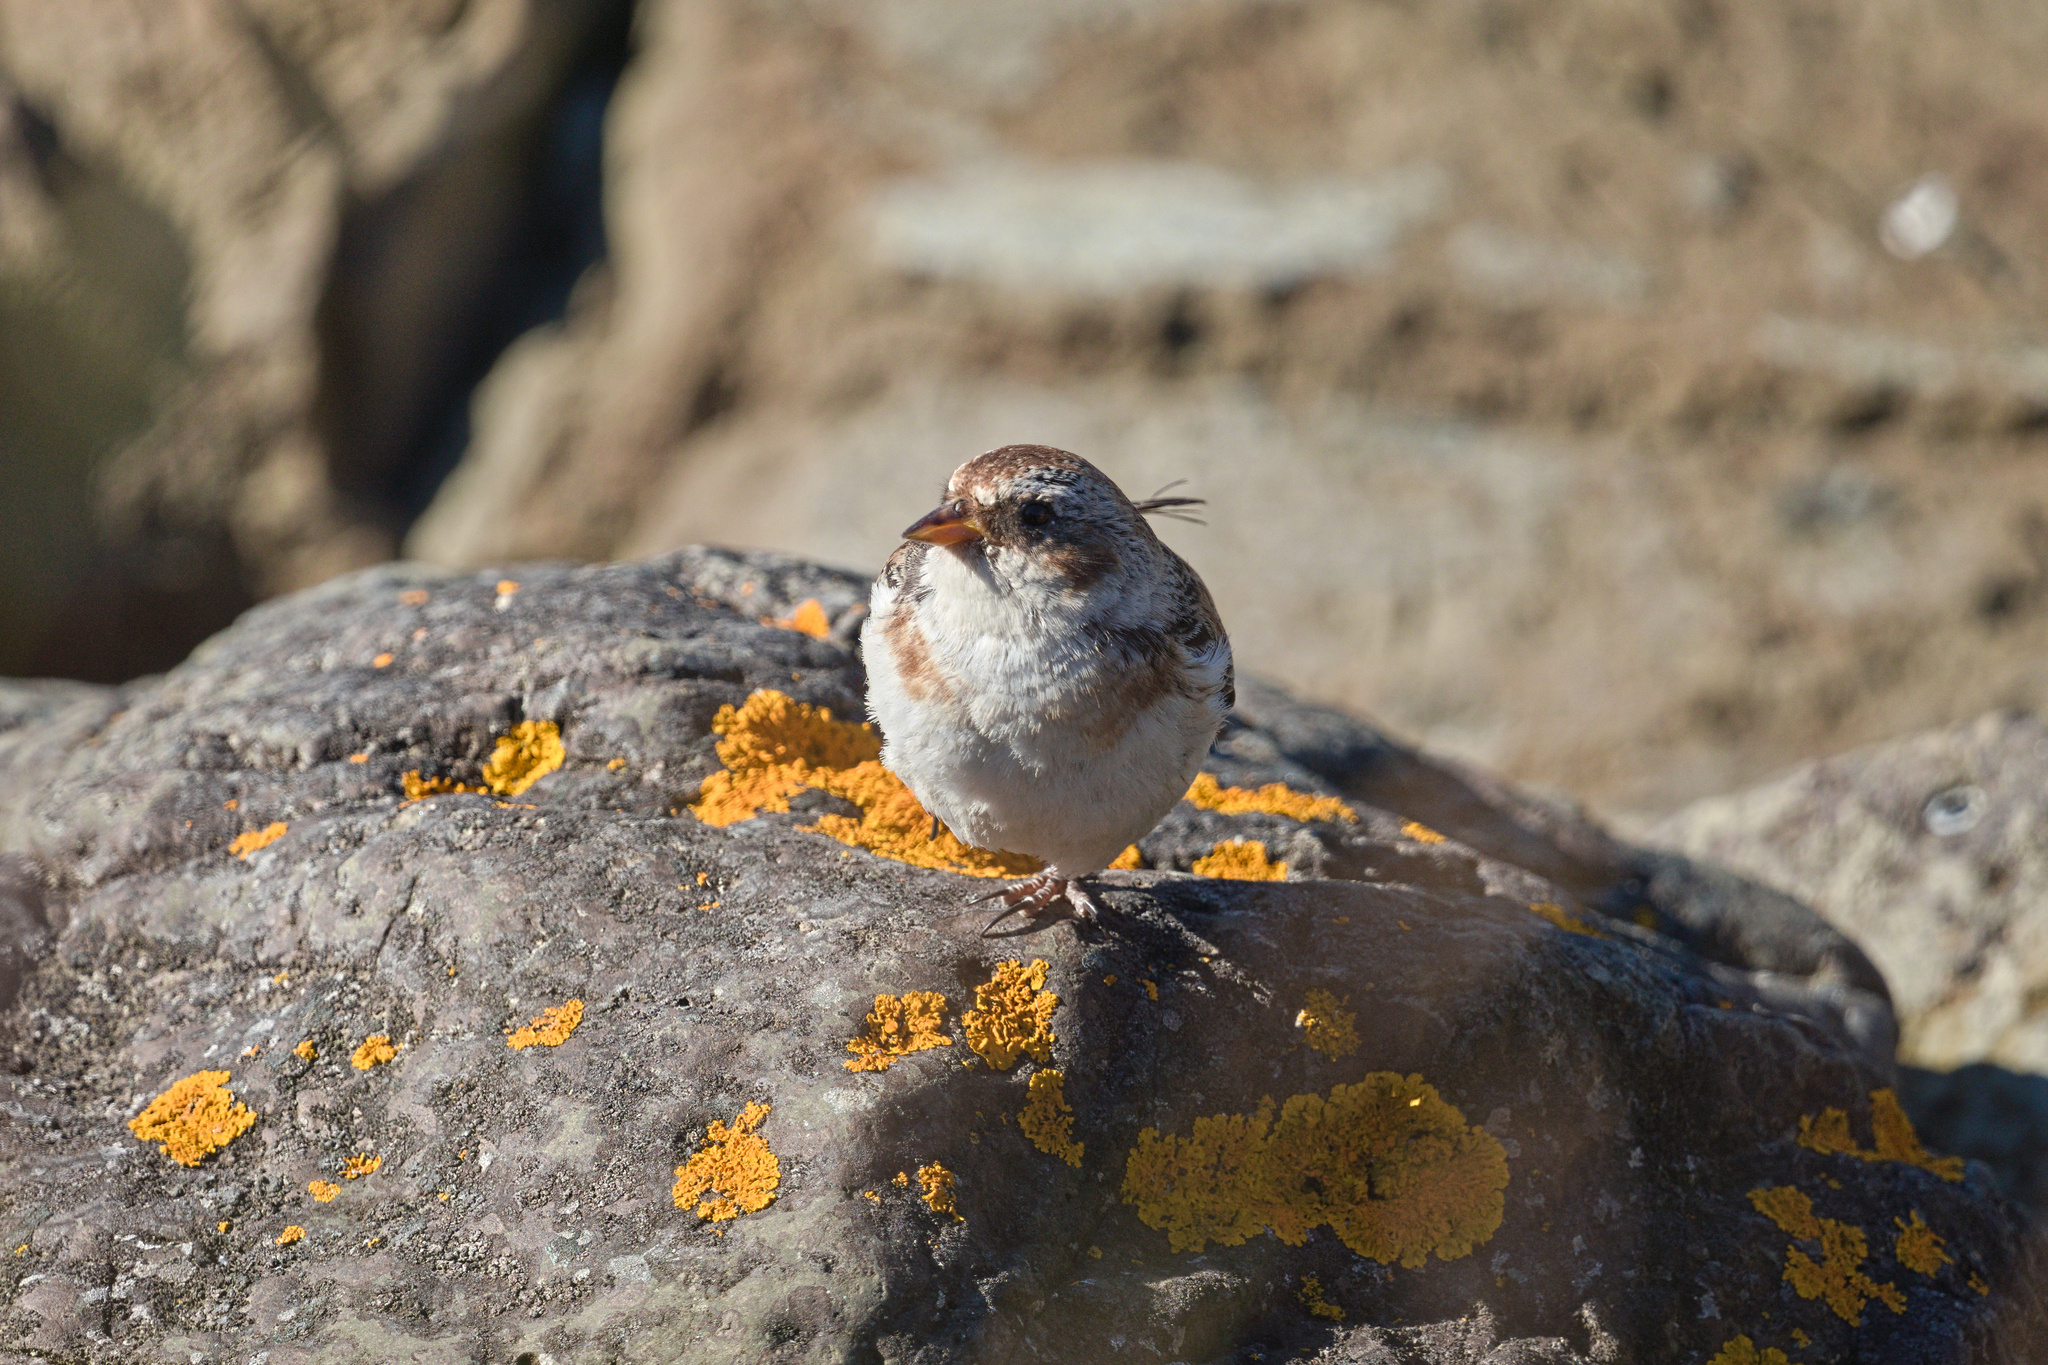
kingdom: Animalia
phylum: Chordata
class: Aves
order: Passeriformes
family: Calcariidae
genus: Plectrophenax
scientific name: Plectrophenax nivalis
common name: Snow bunting
